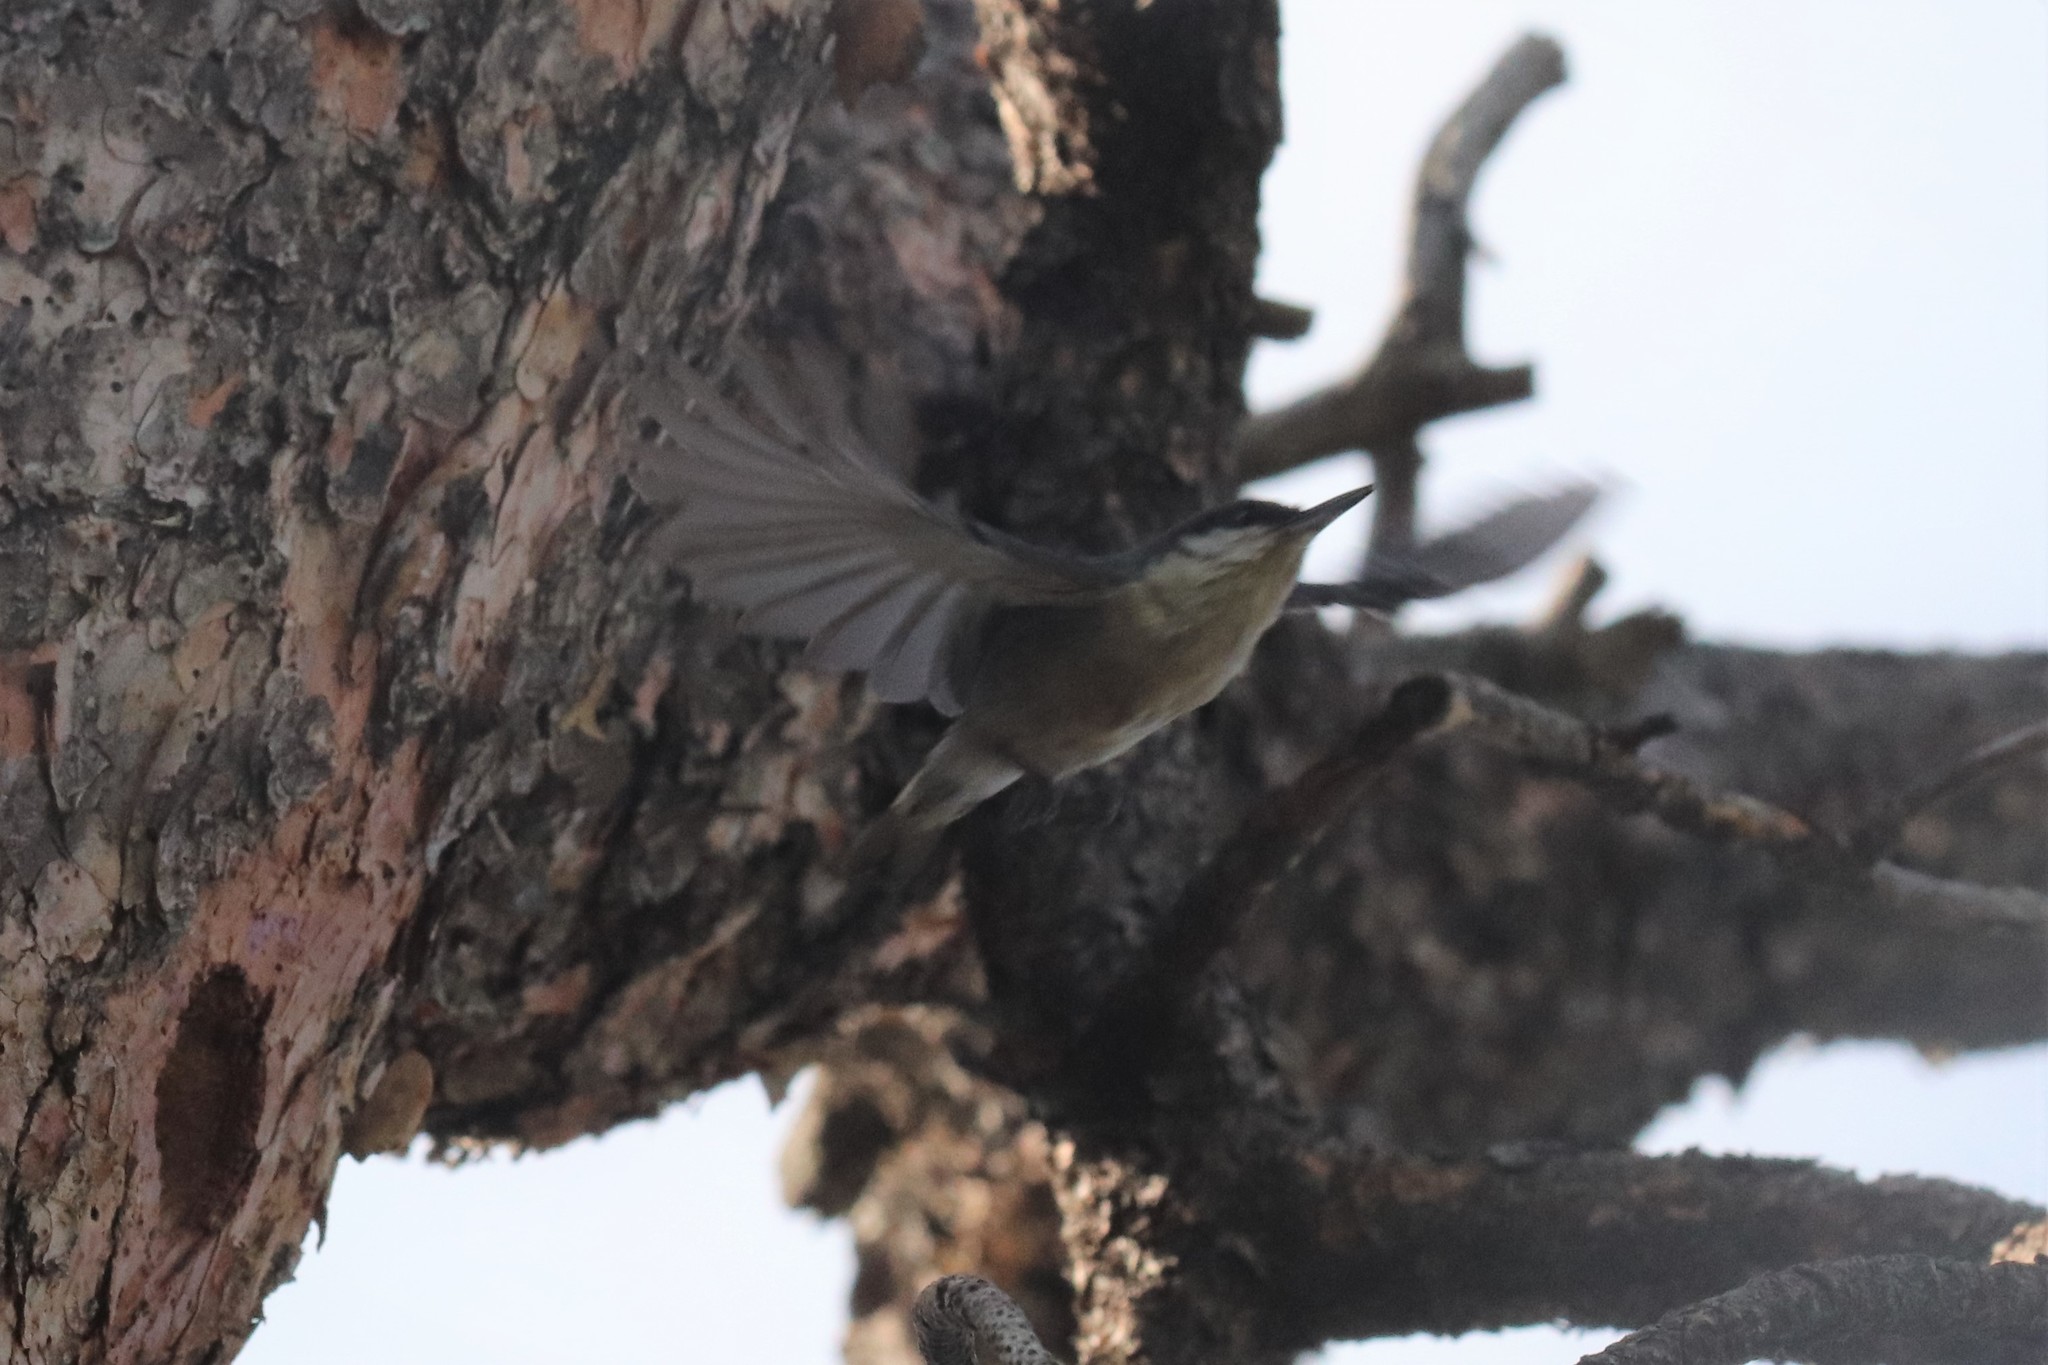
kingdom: Animalia
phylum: Chordata
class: Aves
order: Passeriformes
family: Sittidae
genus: Sitta
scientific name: Sitta pygmaea
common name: Pygmy nuthatch
